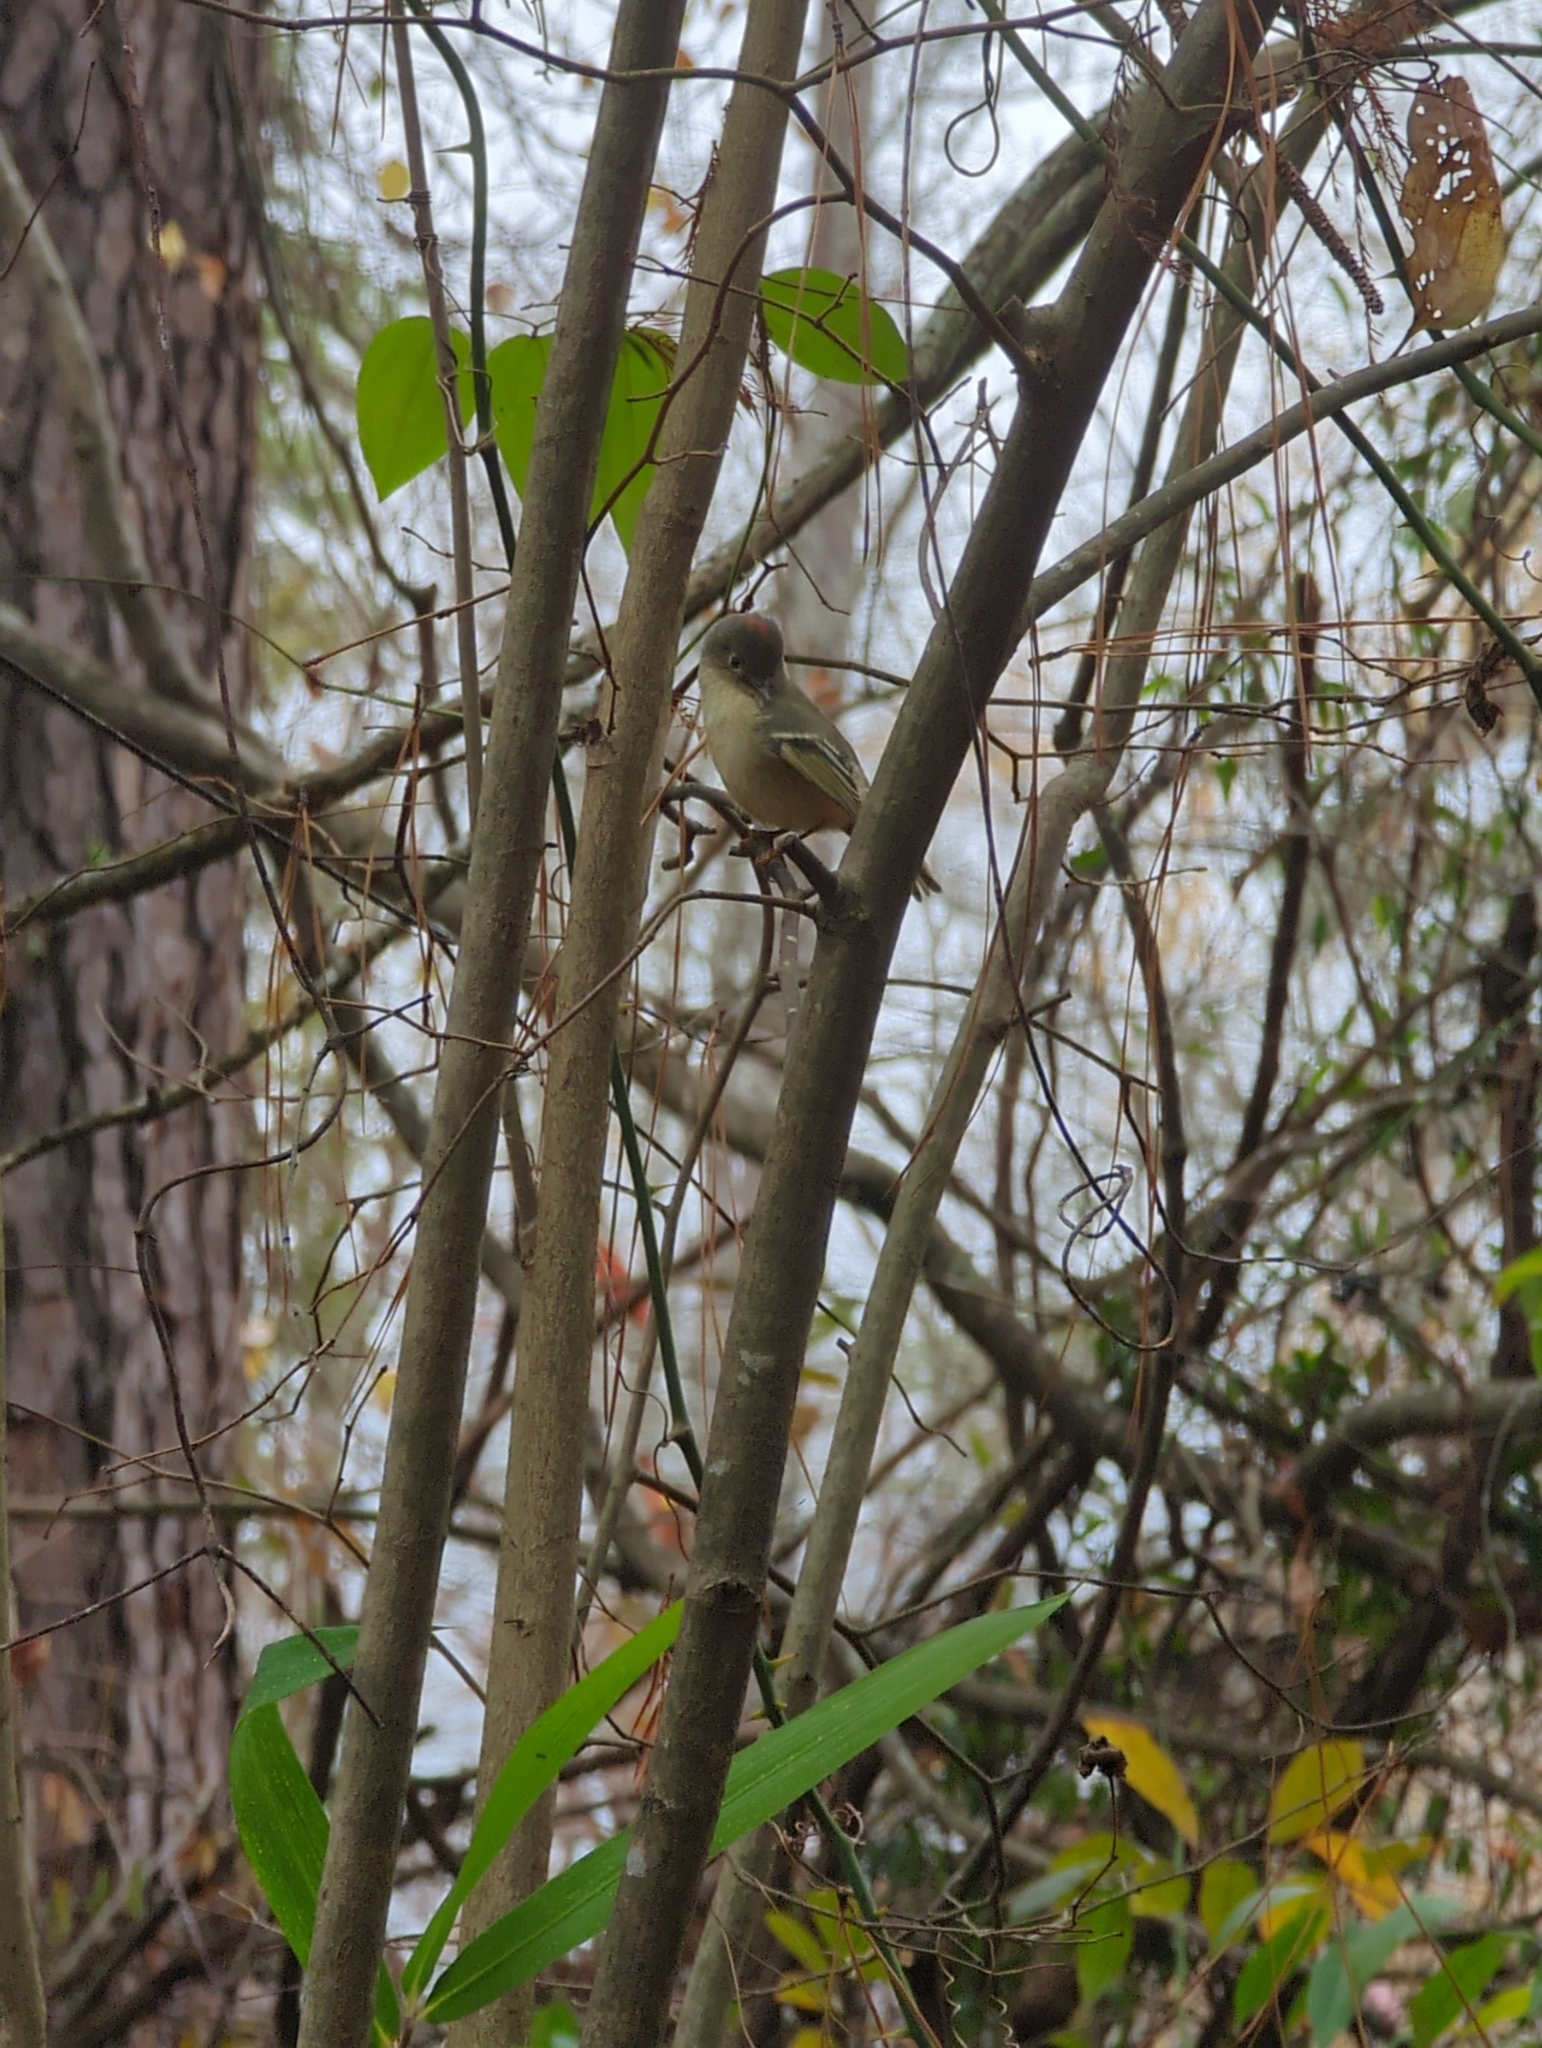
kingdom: Animalia
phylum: Chordata
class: Aves
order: Passeriformes
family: Regulidae
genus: Regulus
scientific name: Regulus calendula
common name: Ruby-crowned kinglet
